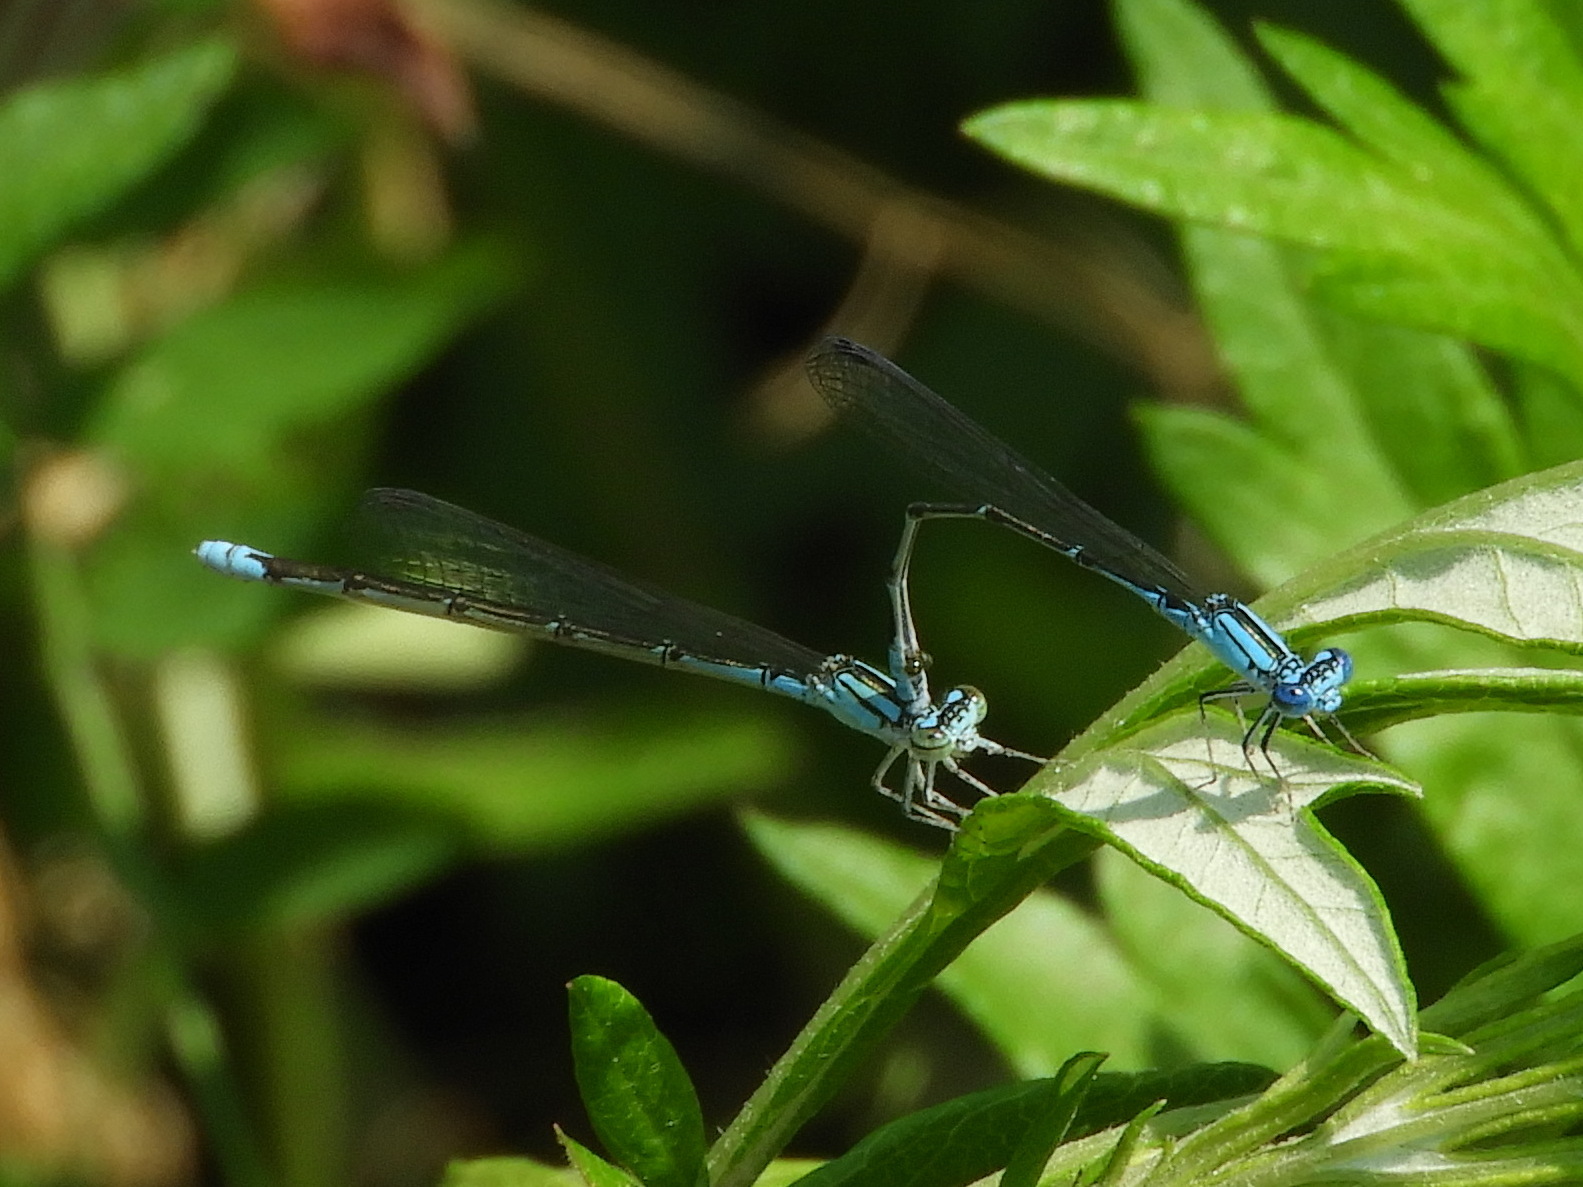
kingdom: Animalia
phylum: Arthropoda
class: Insecta
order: Odonata
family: Coenagrionidae
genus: Enallagma
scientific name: Enallagma traviatum
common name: Slender bluet
